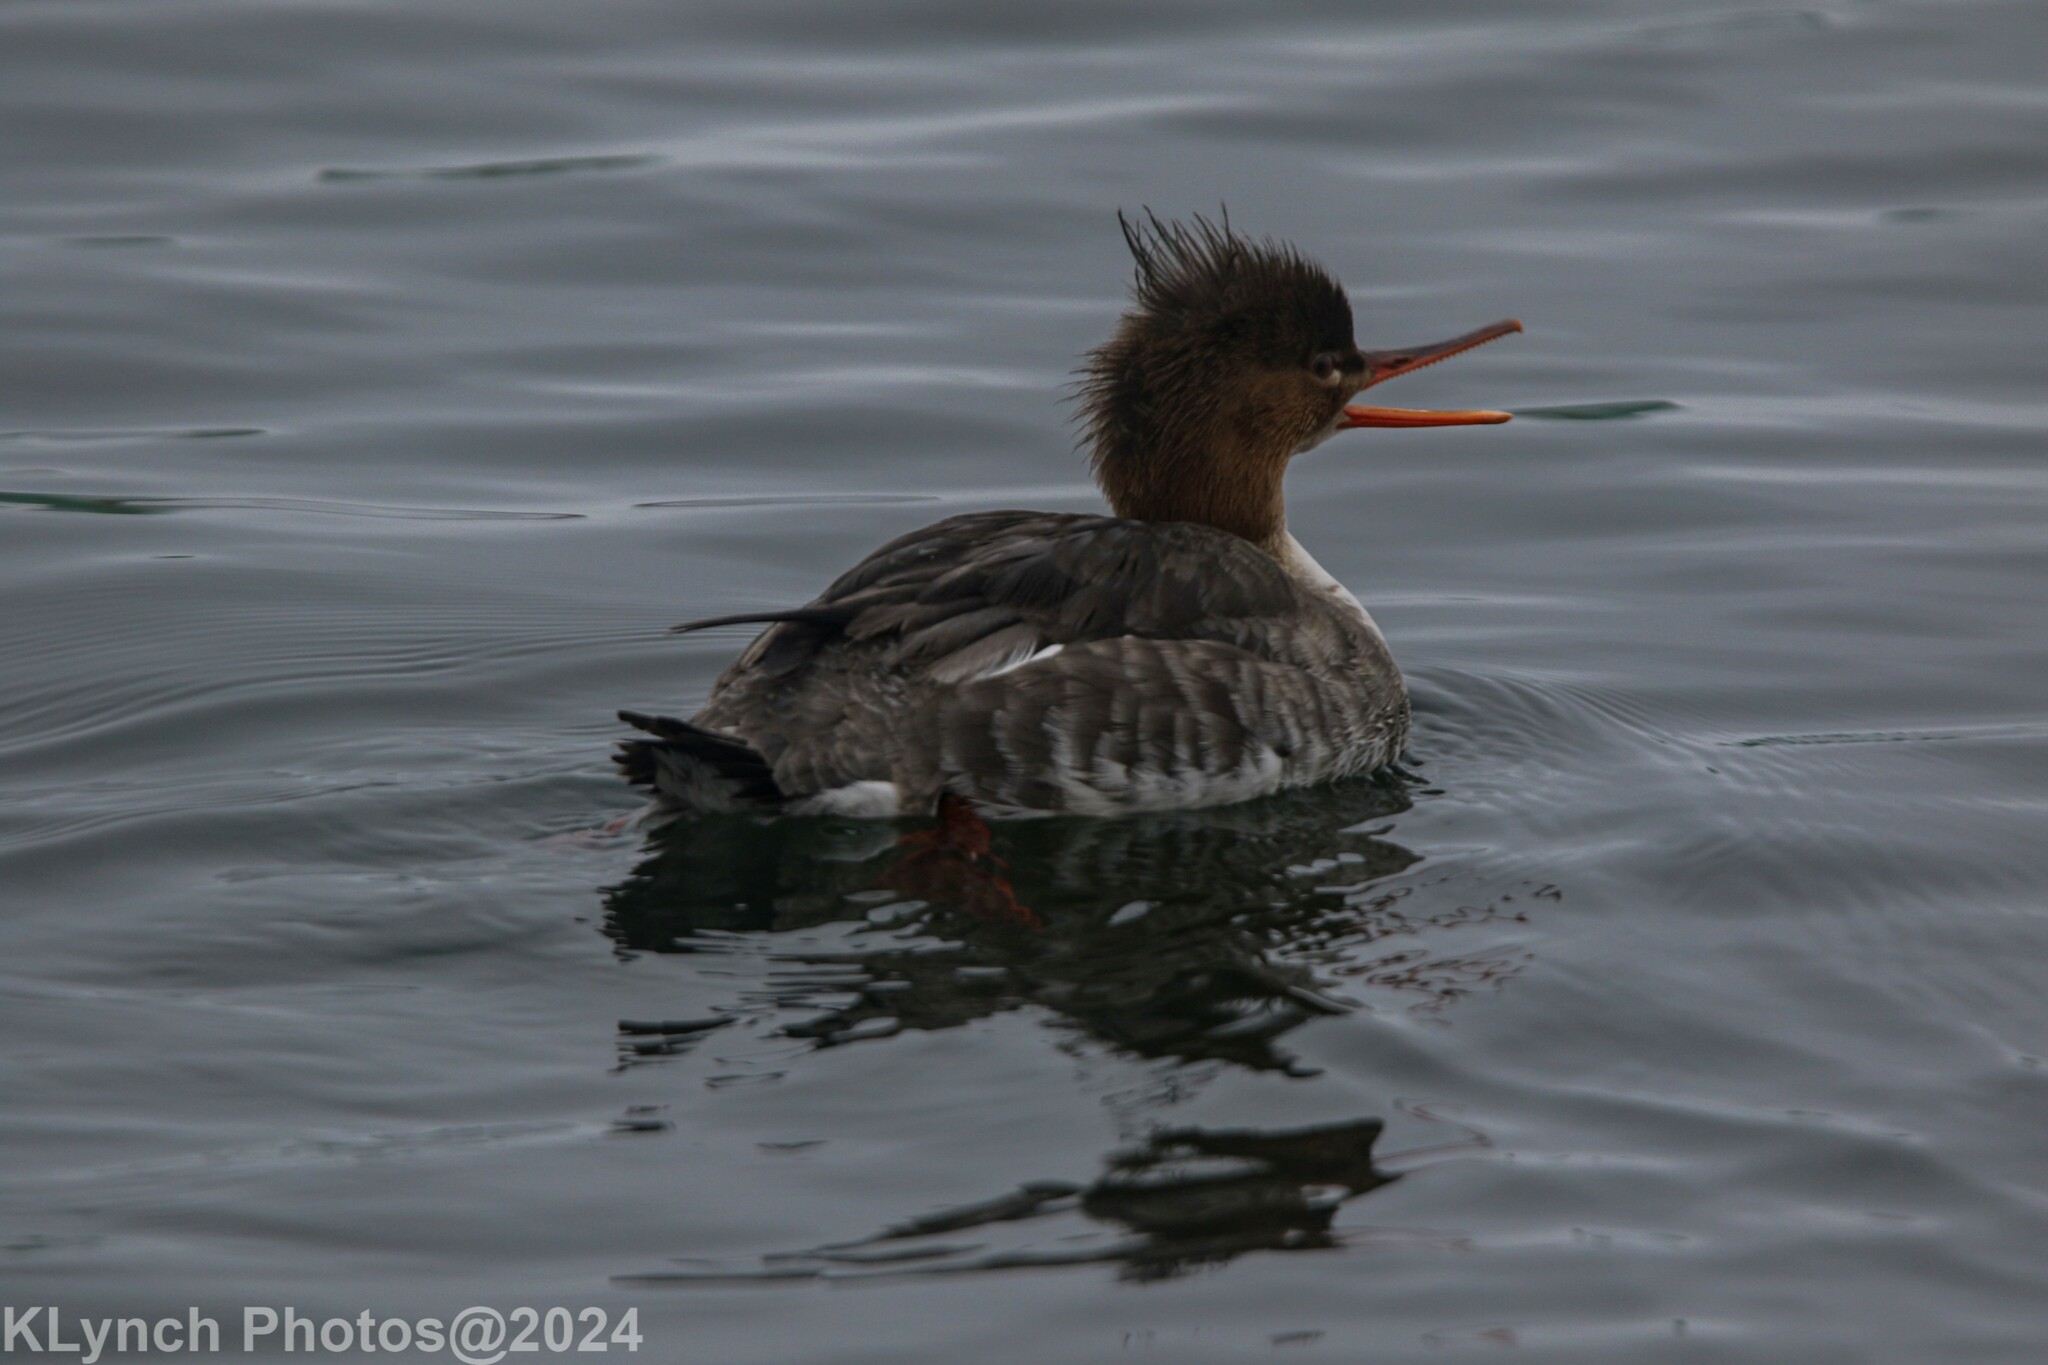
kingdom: Animalia
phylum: Chordata
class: Aves
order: Anseriformes
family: Anatidae
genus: Mergus
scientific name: Mergus serrator
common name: Red-breasted merganser
